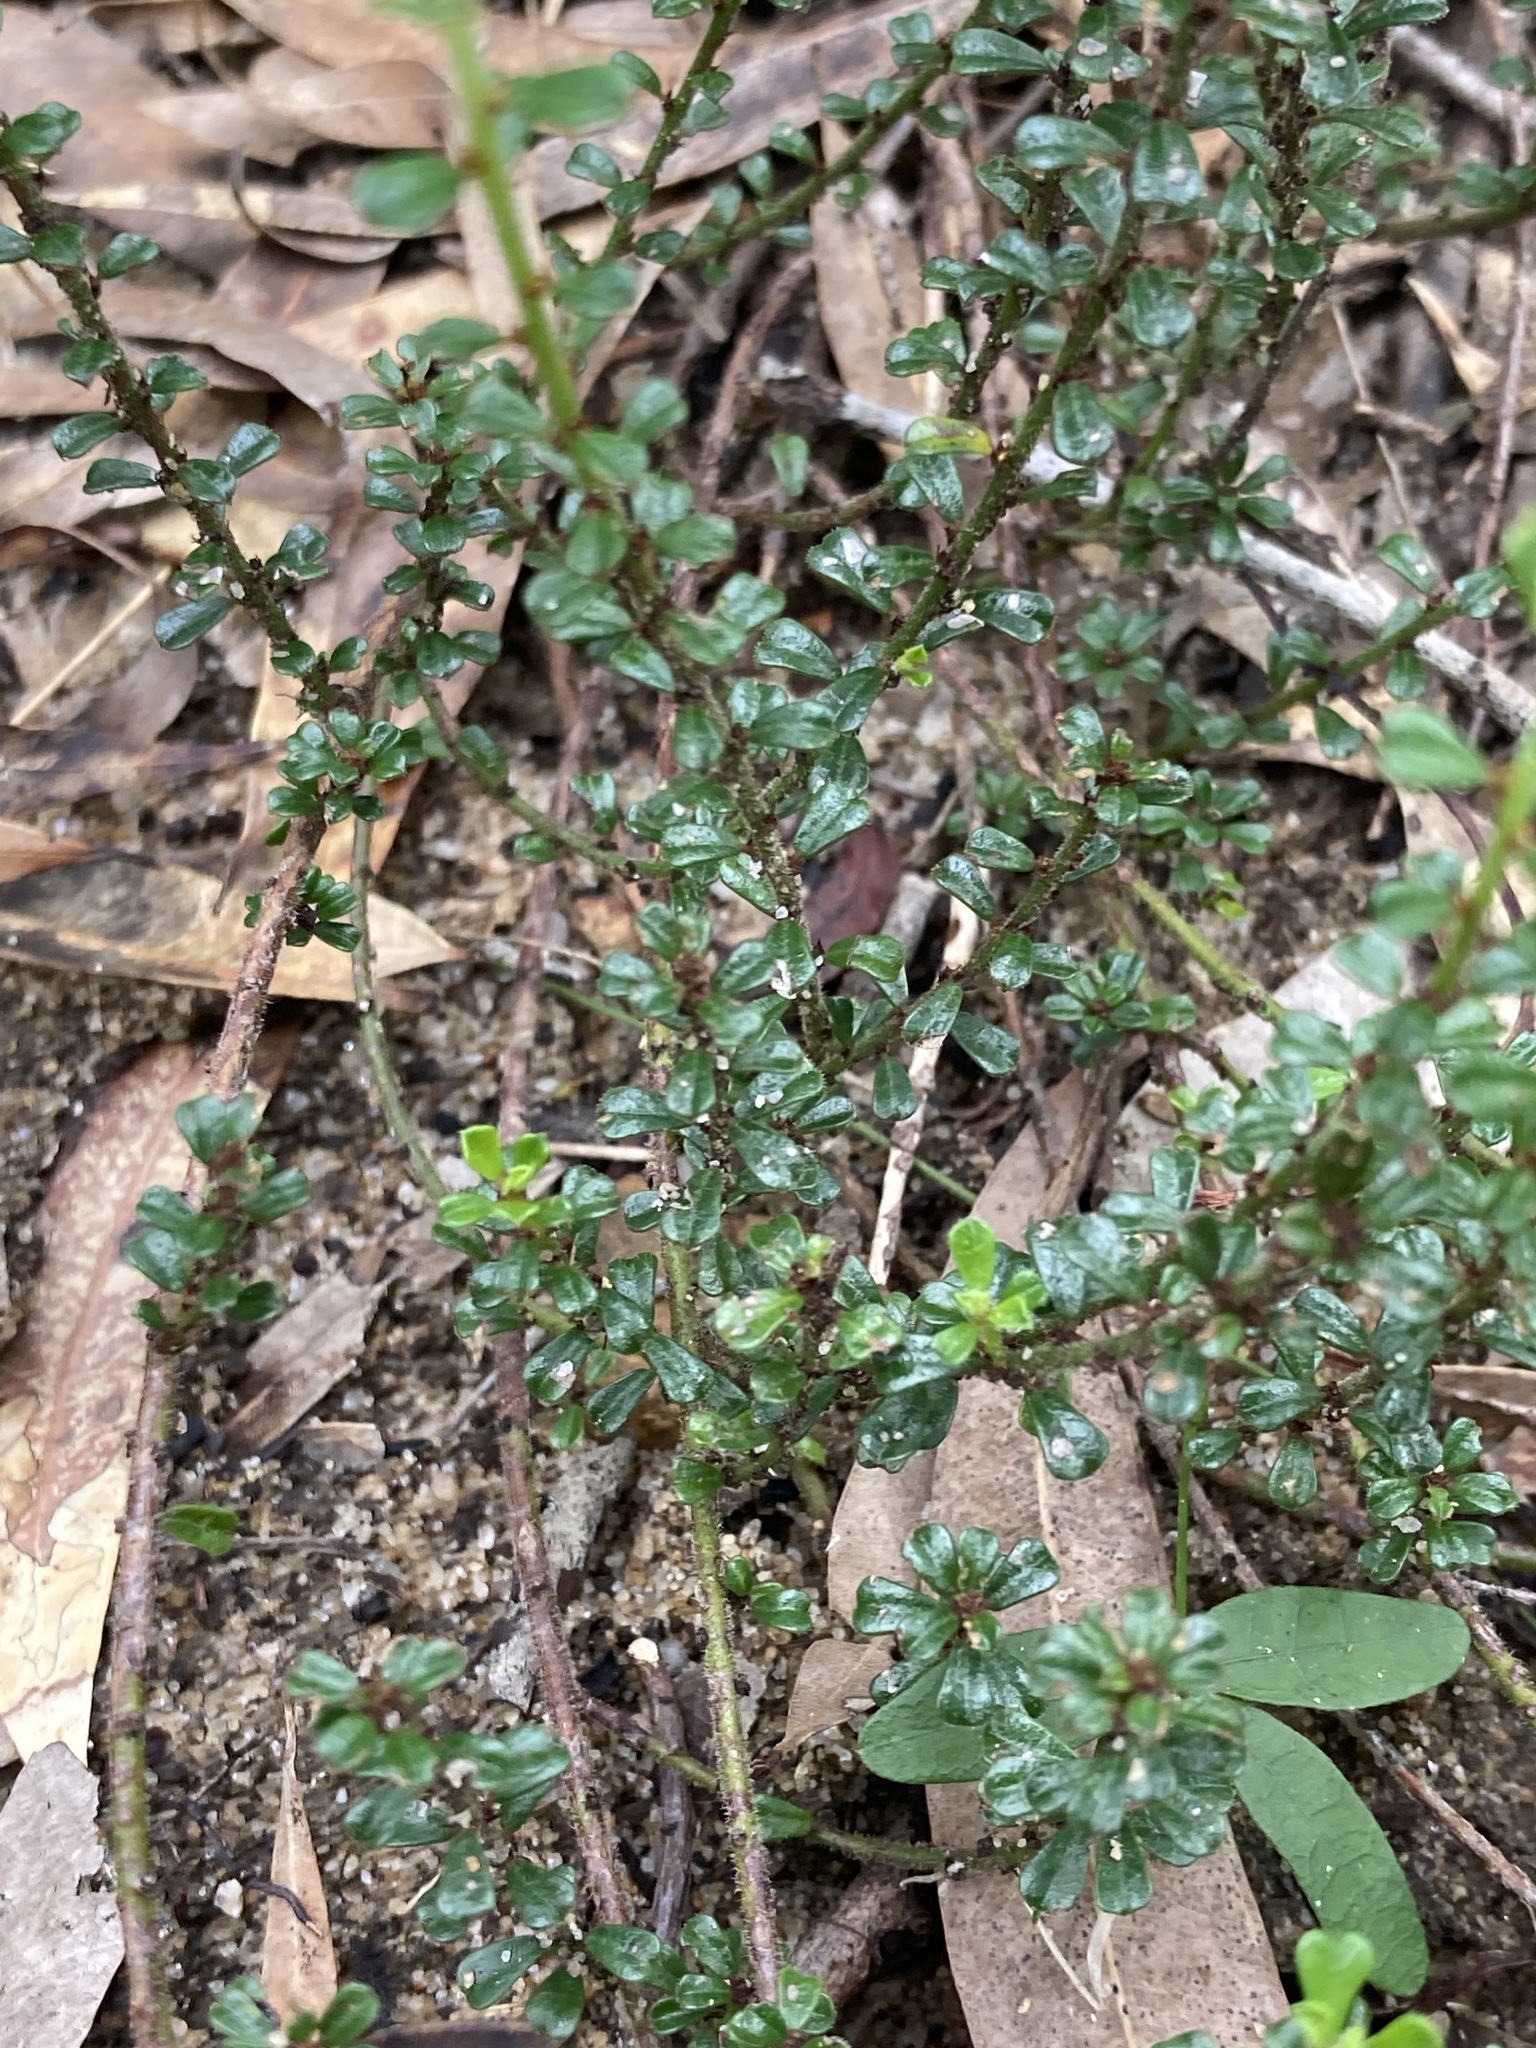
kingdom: Plantae
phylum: Tracheophyta
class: Magnoliopsida
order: Malpighiales
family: Phyllanthaceae
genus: Phyllanthus
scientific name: Phyllanthus hirtellus
